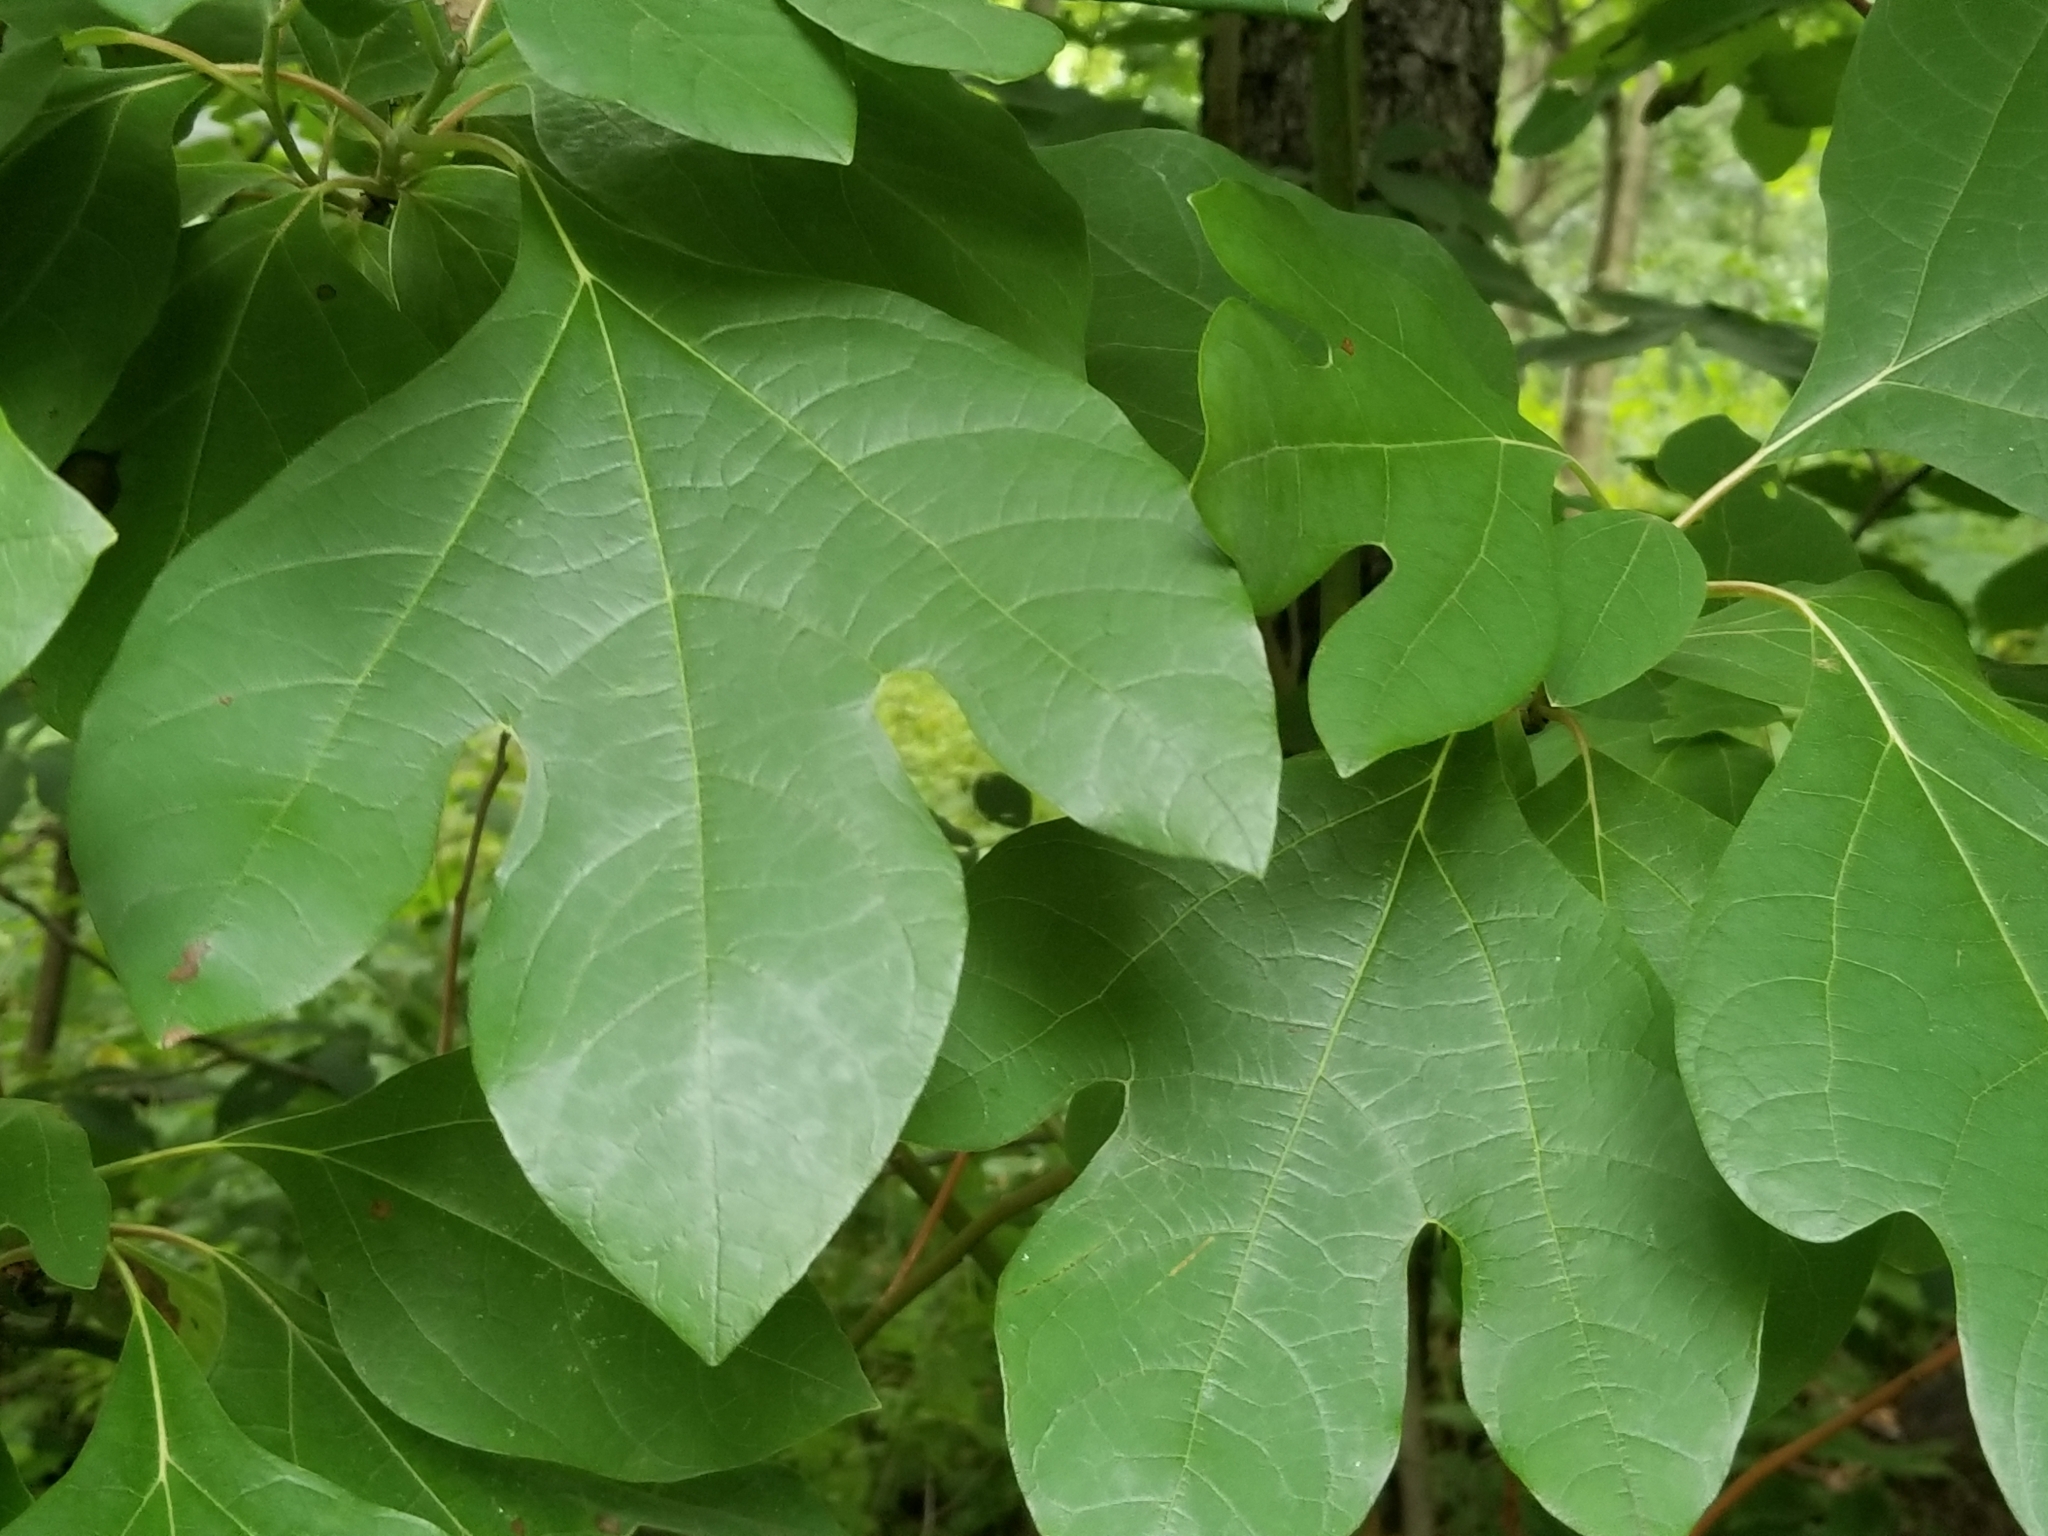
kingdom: Plantae
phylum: Tracheophyta
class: Magnoliopsida
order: Laurales
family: Lauraceae
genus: Sassafras
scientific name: Sassafras albidum
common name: Sassafras
